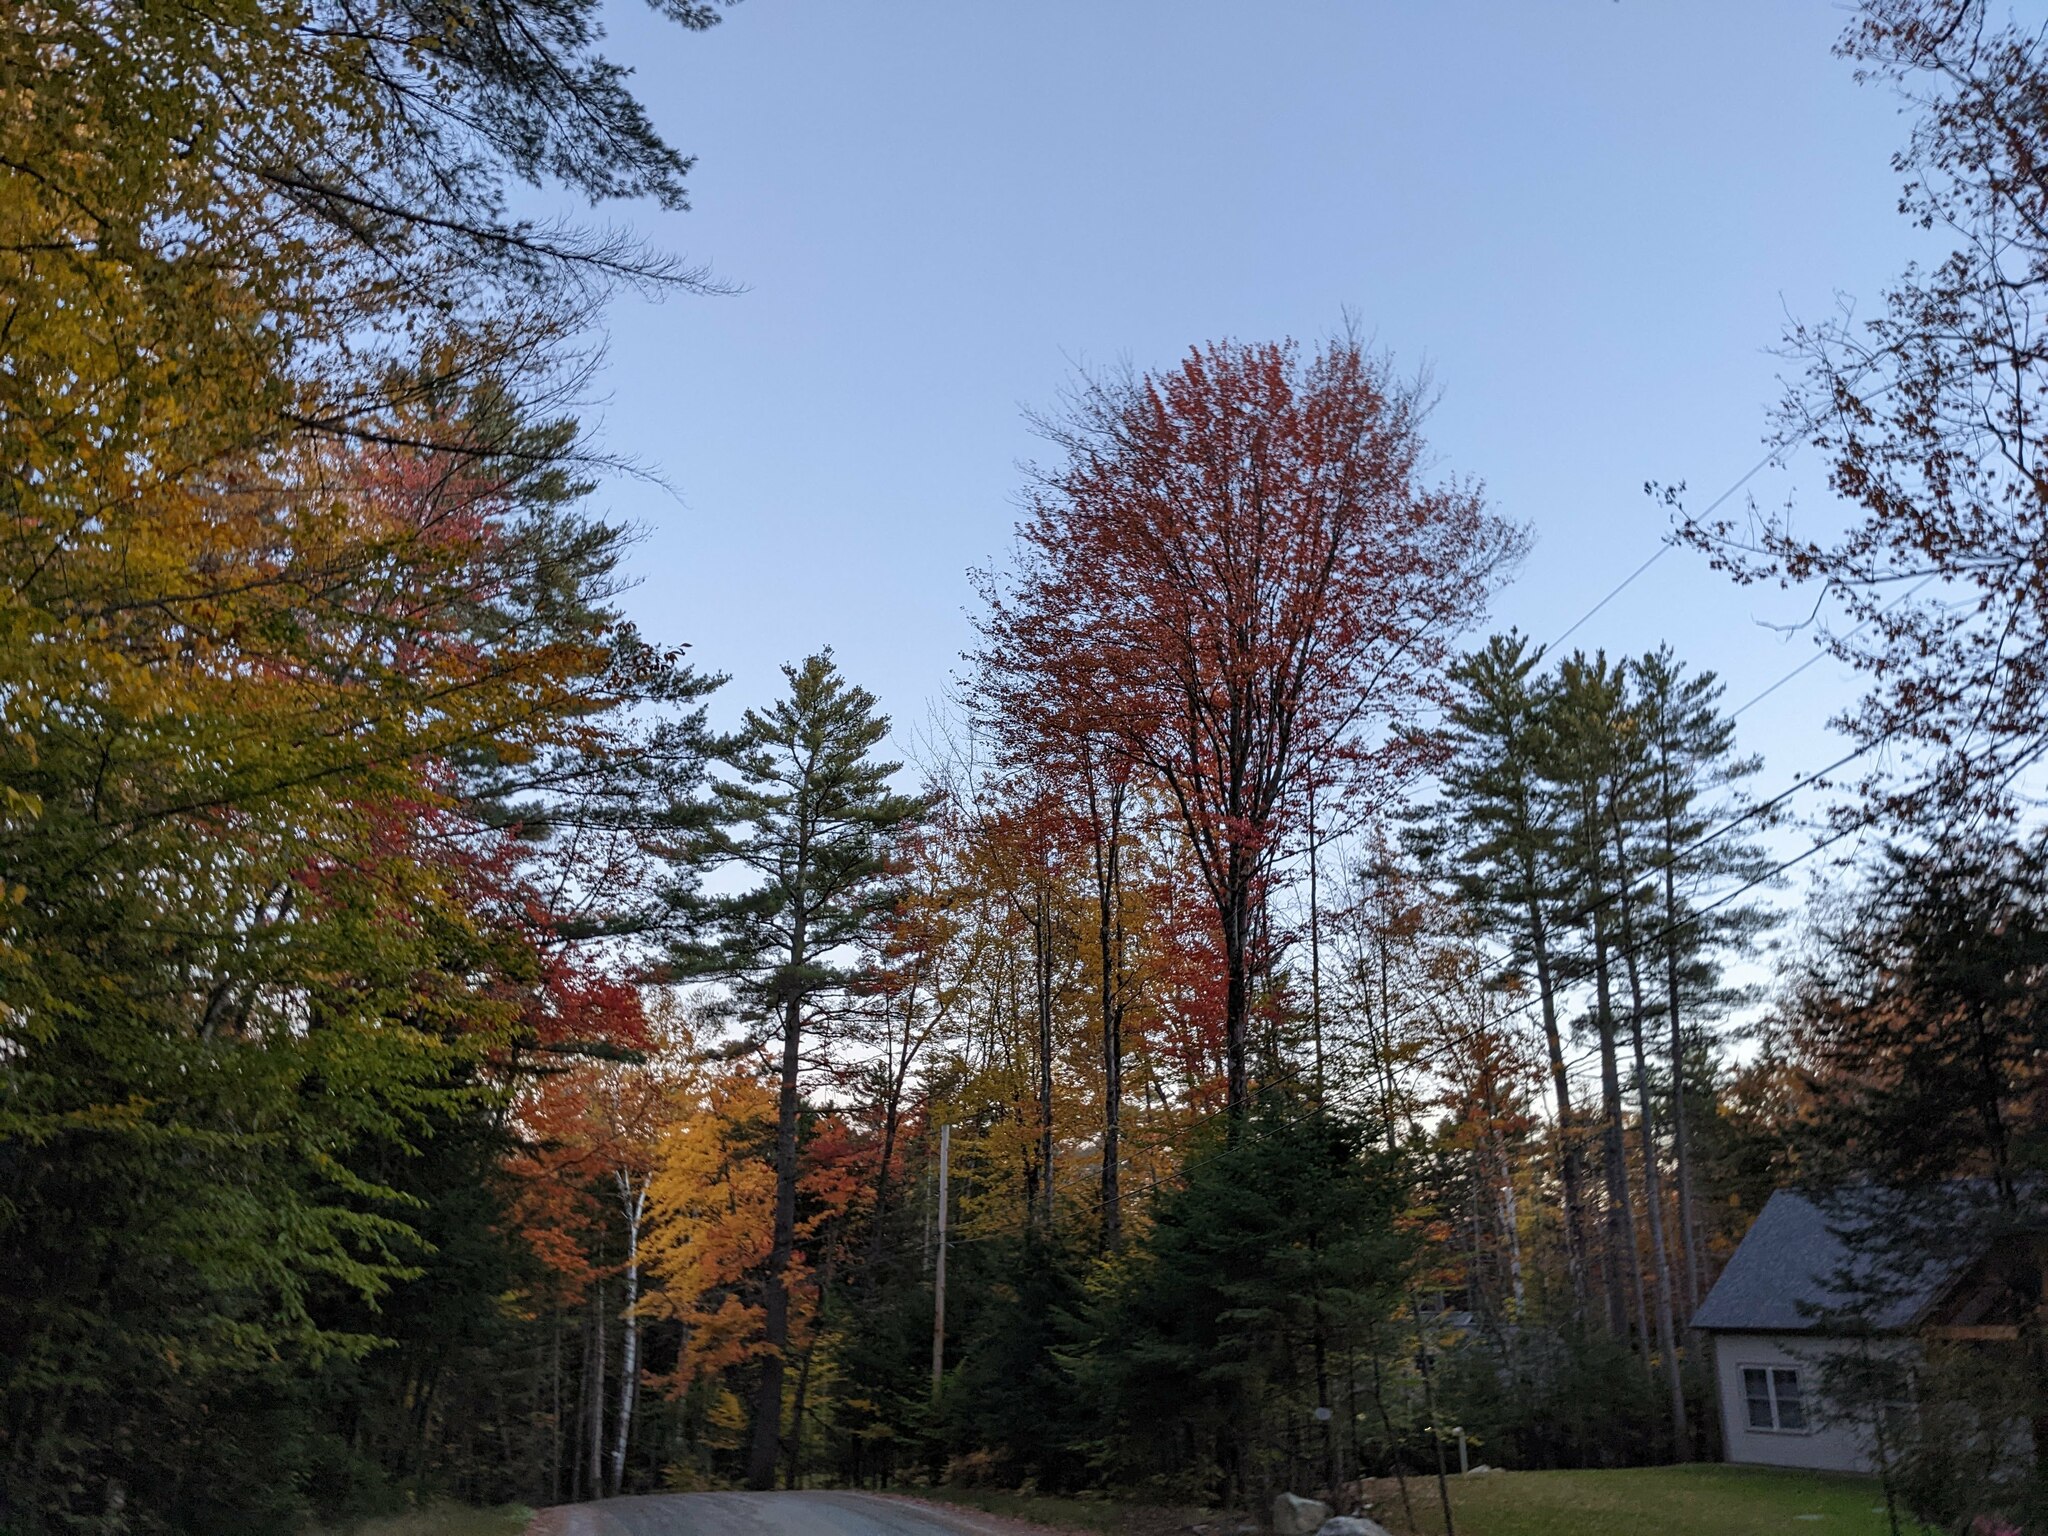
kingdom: Plantae
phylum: Tracheophyta
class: Pinopsida
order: Pinales
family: Pinaceae
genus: Pinus
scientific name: Pinus strobus
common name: Weymouth pine
